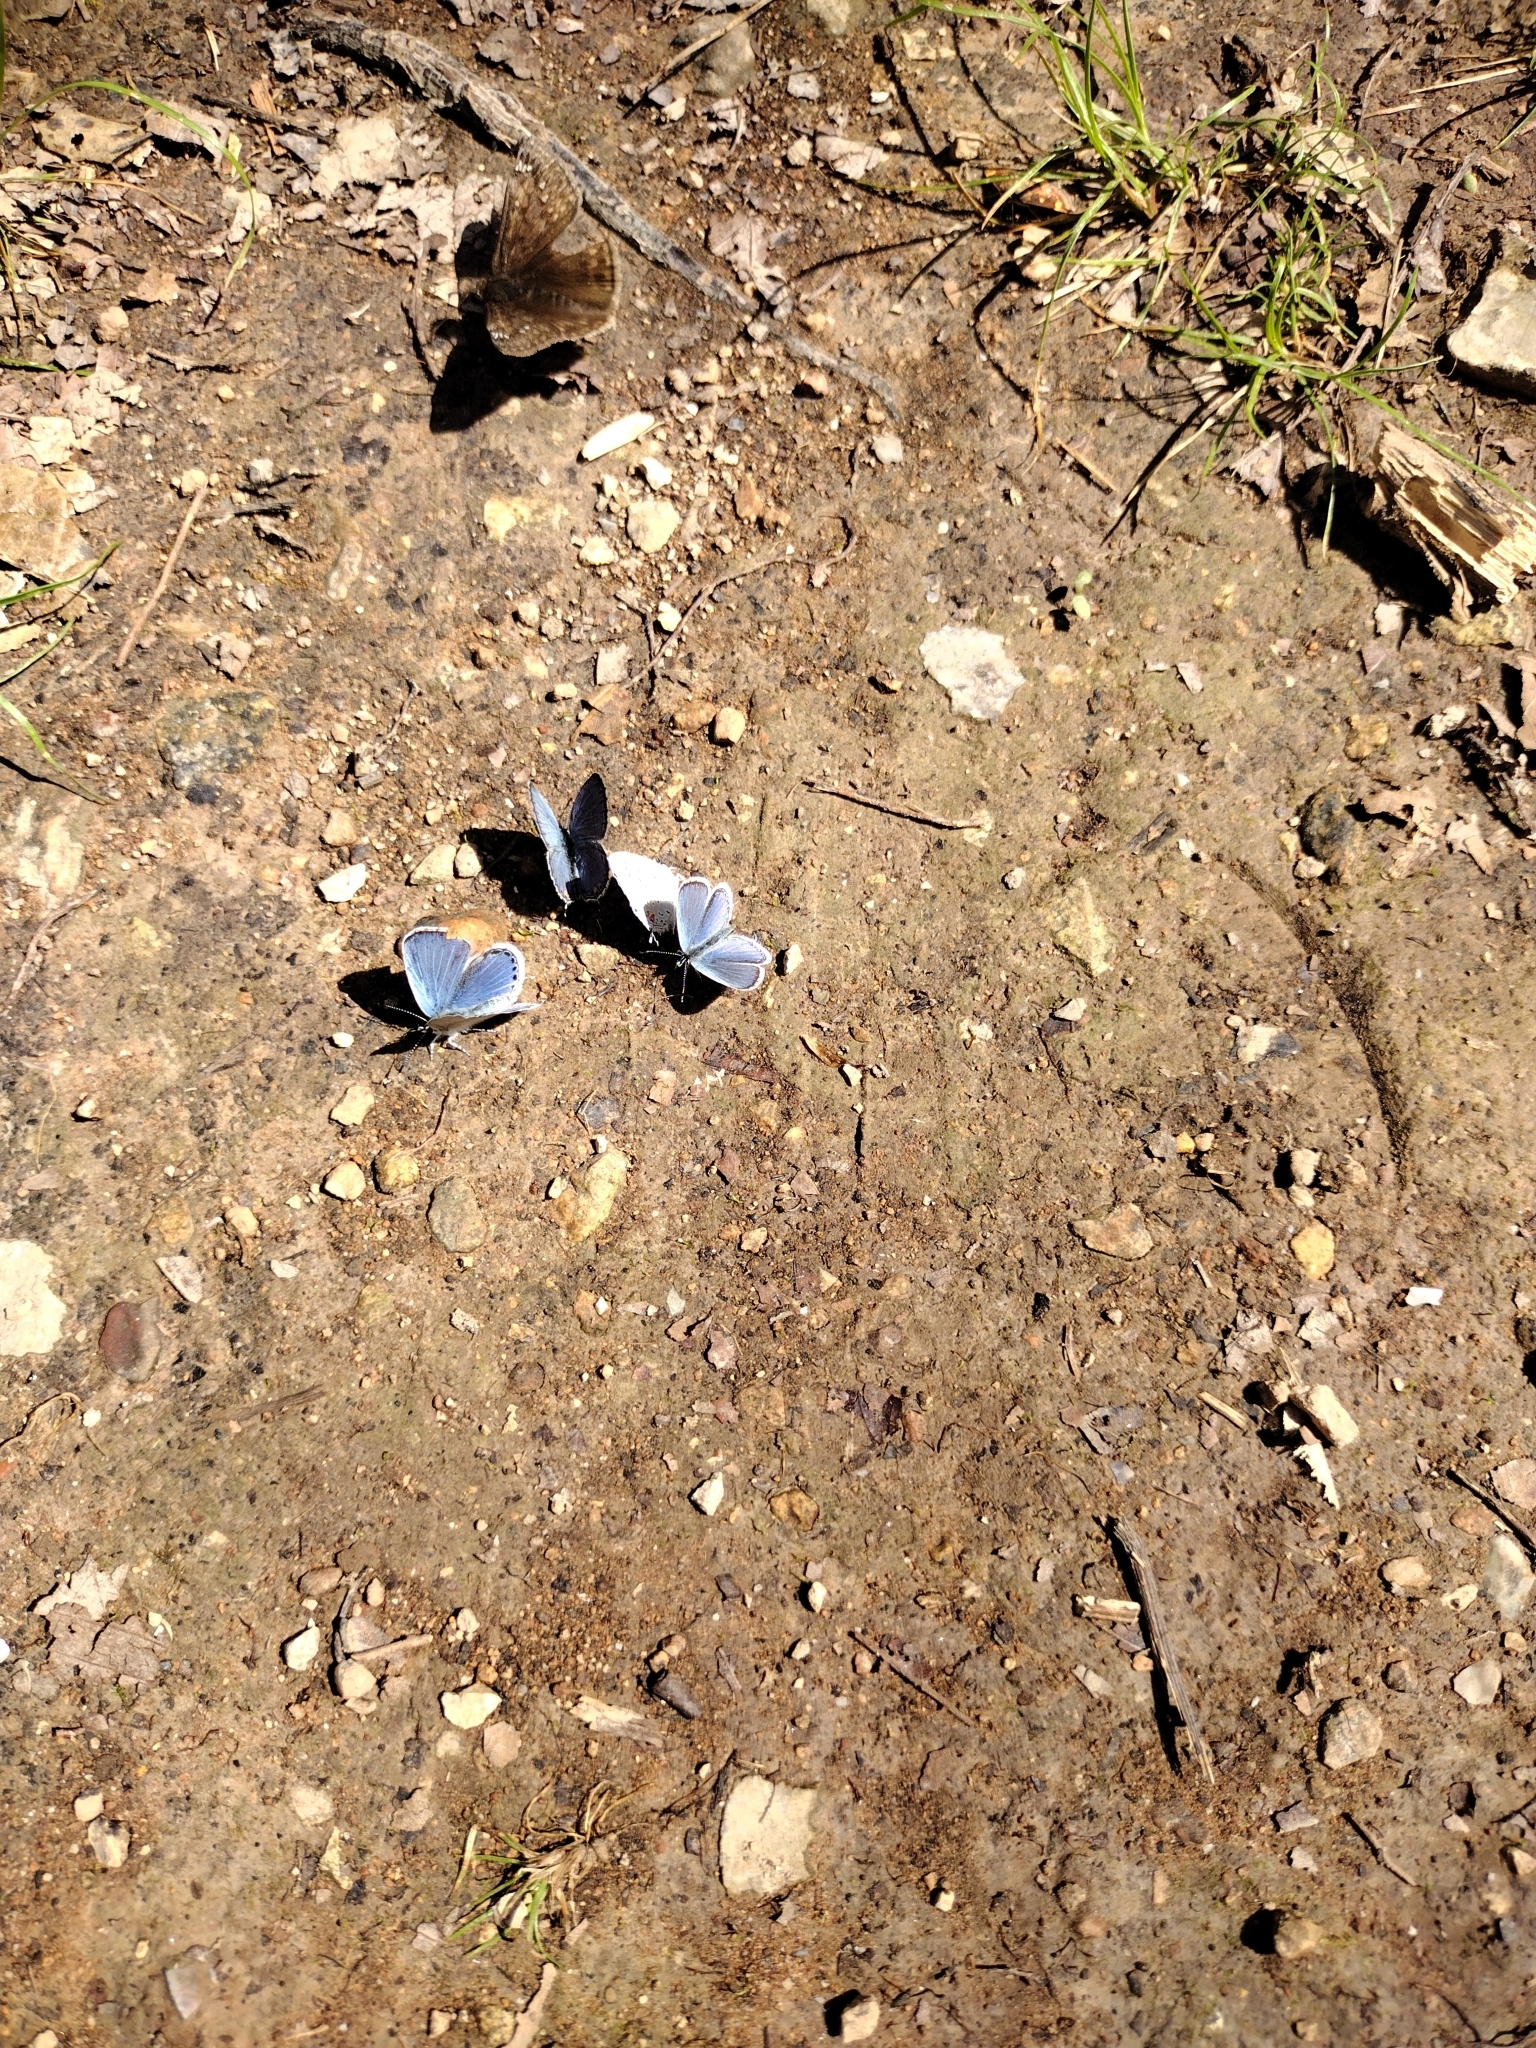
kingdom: Animalia
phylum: Arthropoda
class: Insecta
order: Lepidoptera
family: Lycaenidae
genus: Elkalyce
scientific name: Elkalyce comyntas
